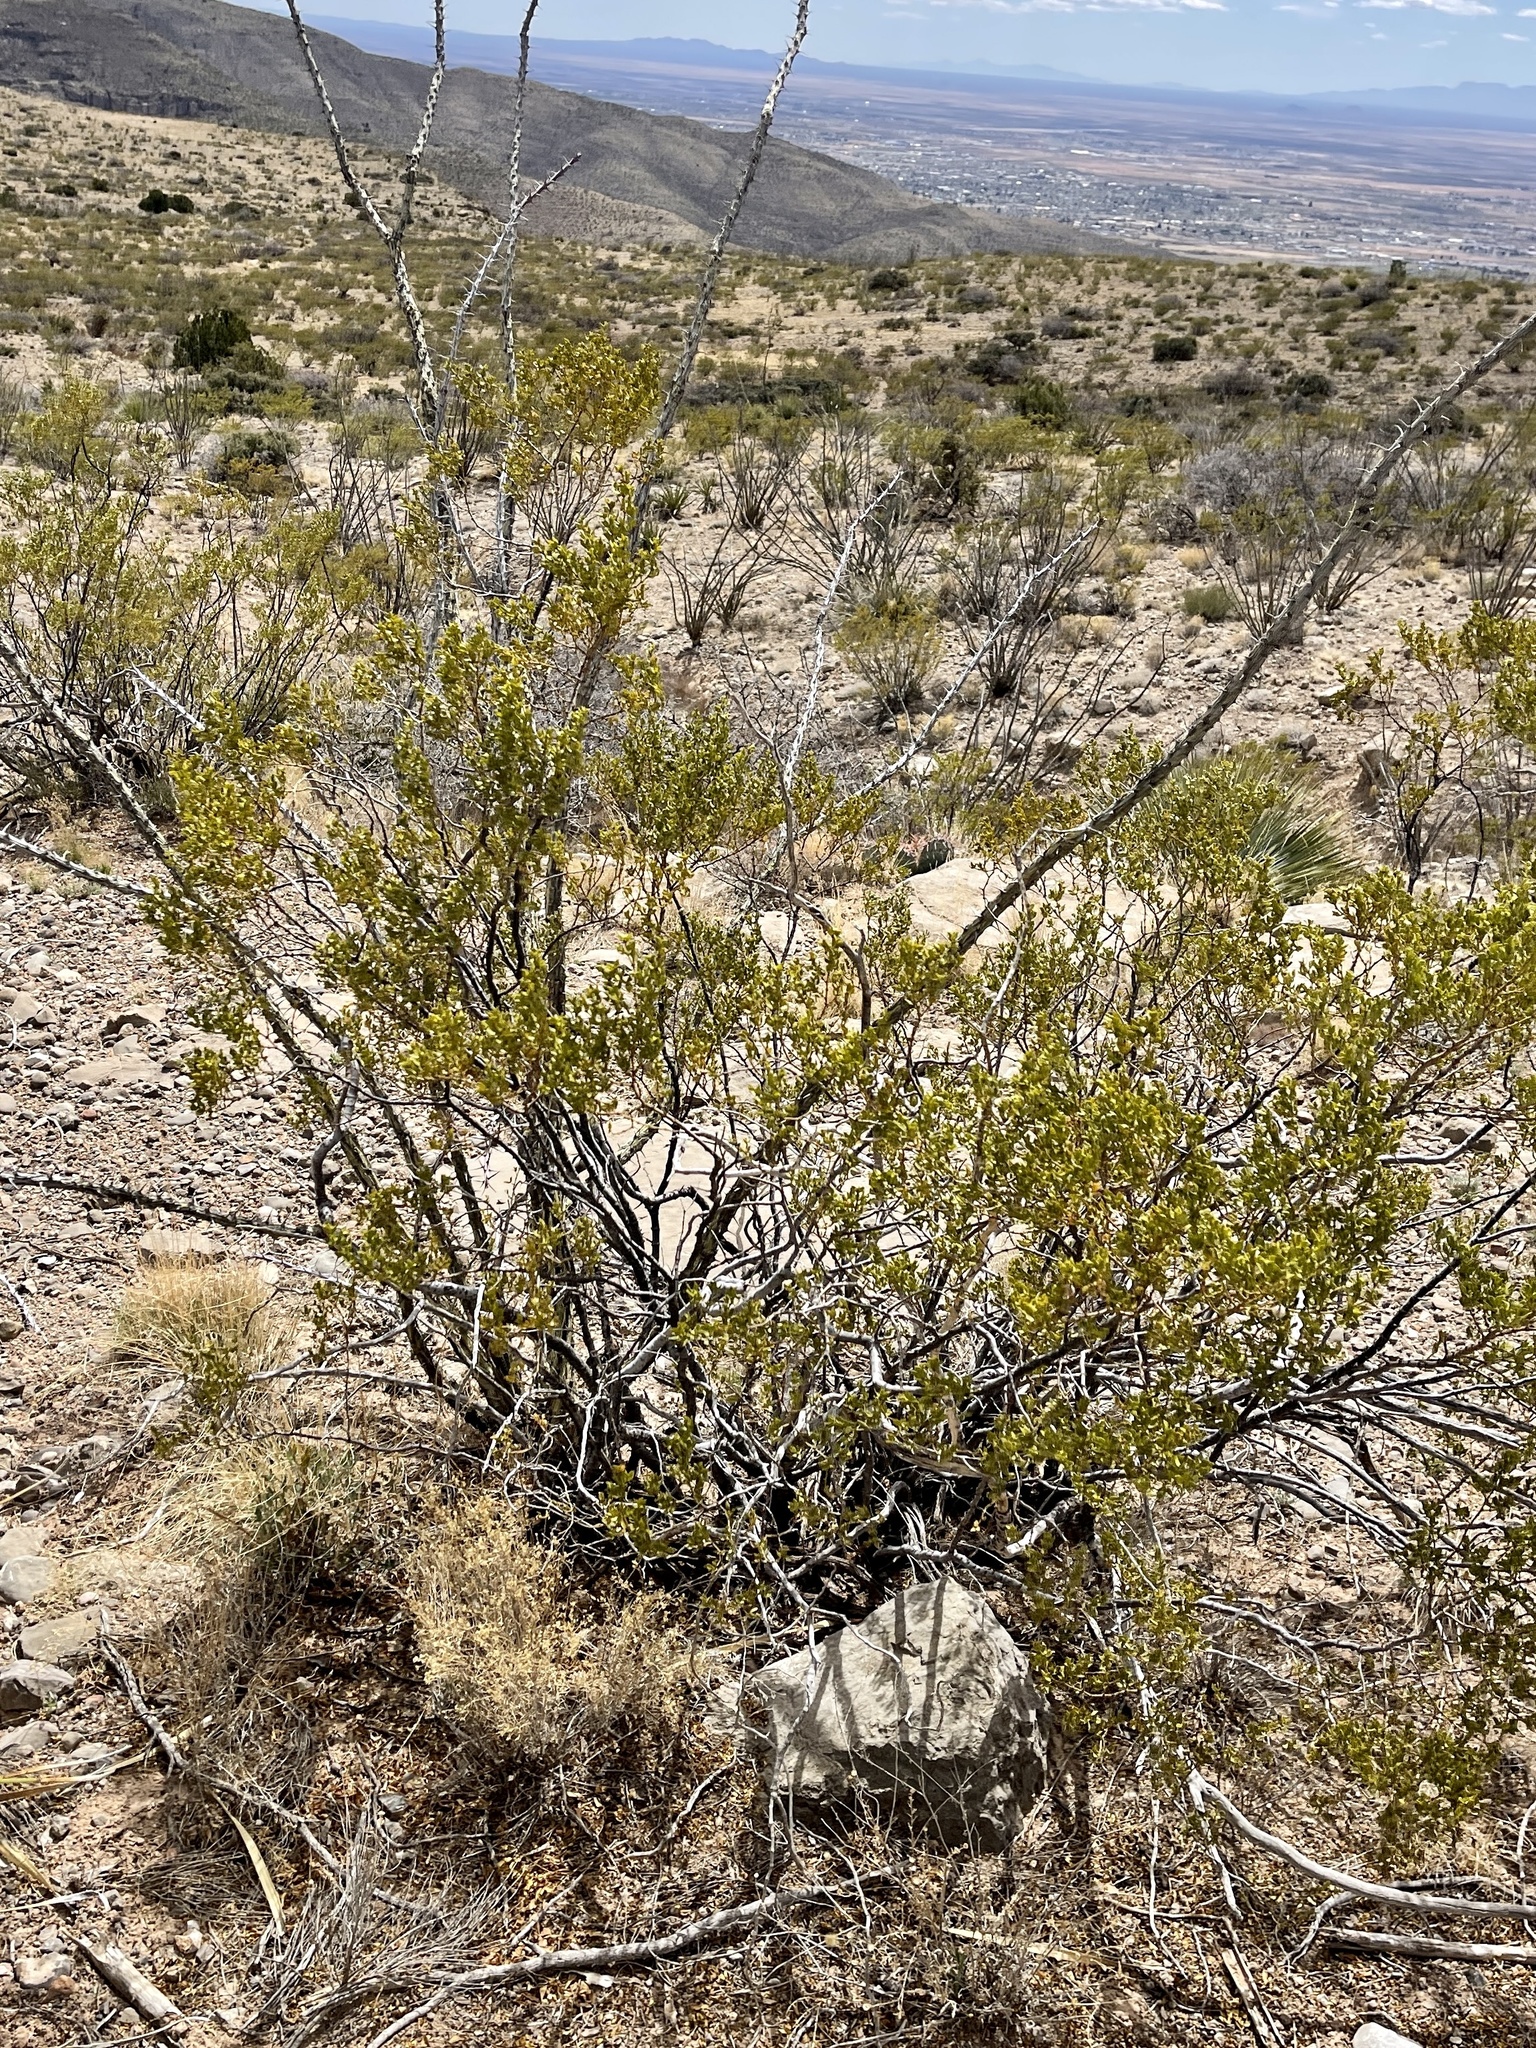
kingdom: Plantae
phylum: Tracheophyta
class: Magnoliopsida
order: Zygophyllales
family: Zygophyllaceae
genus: Larrea
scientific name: Larrea tridentata
